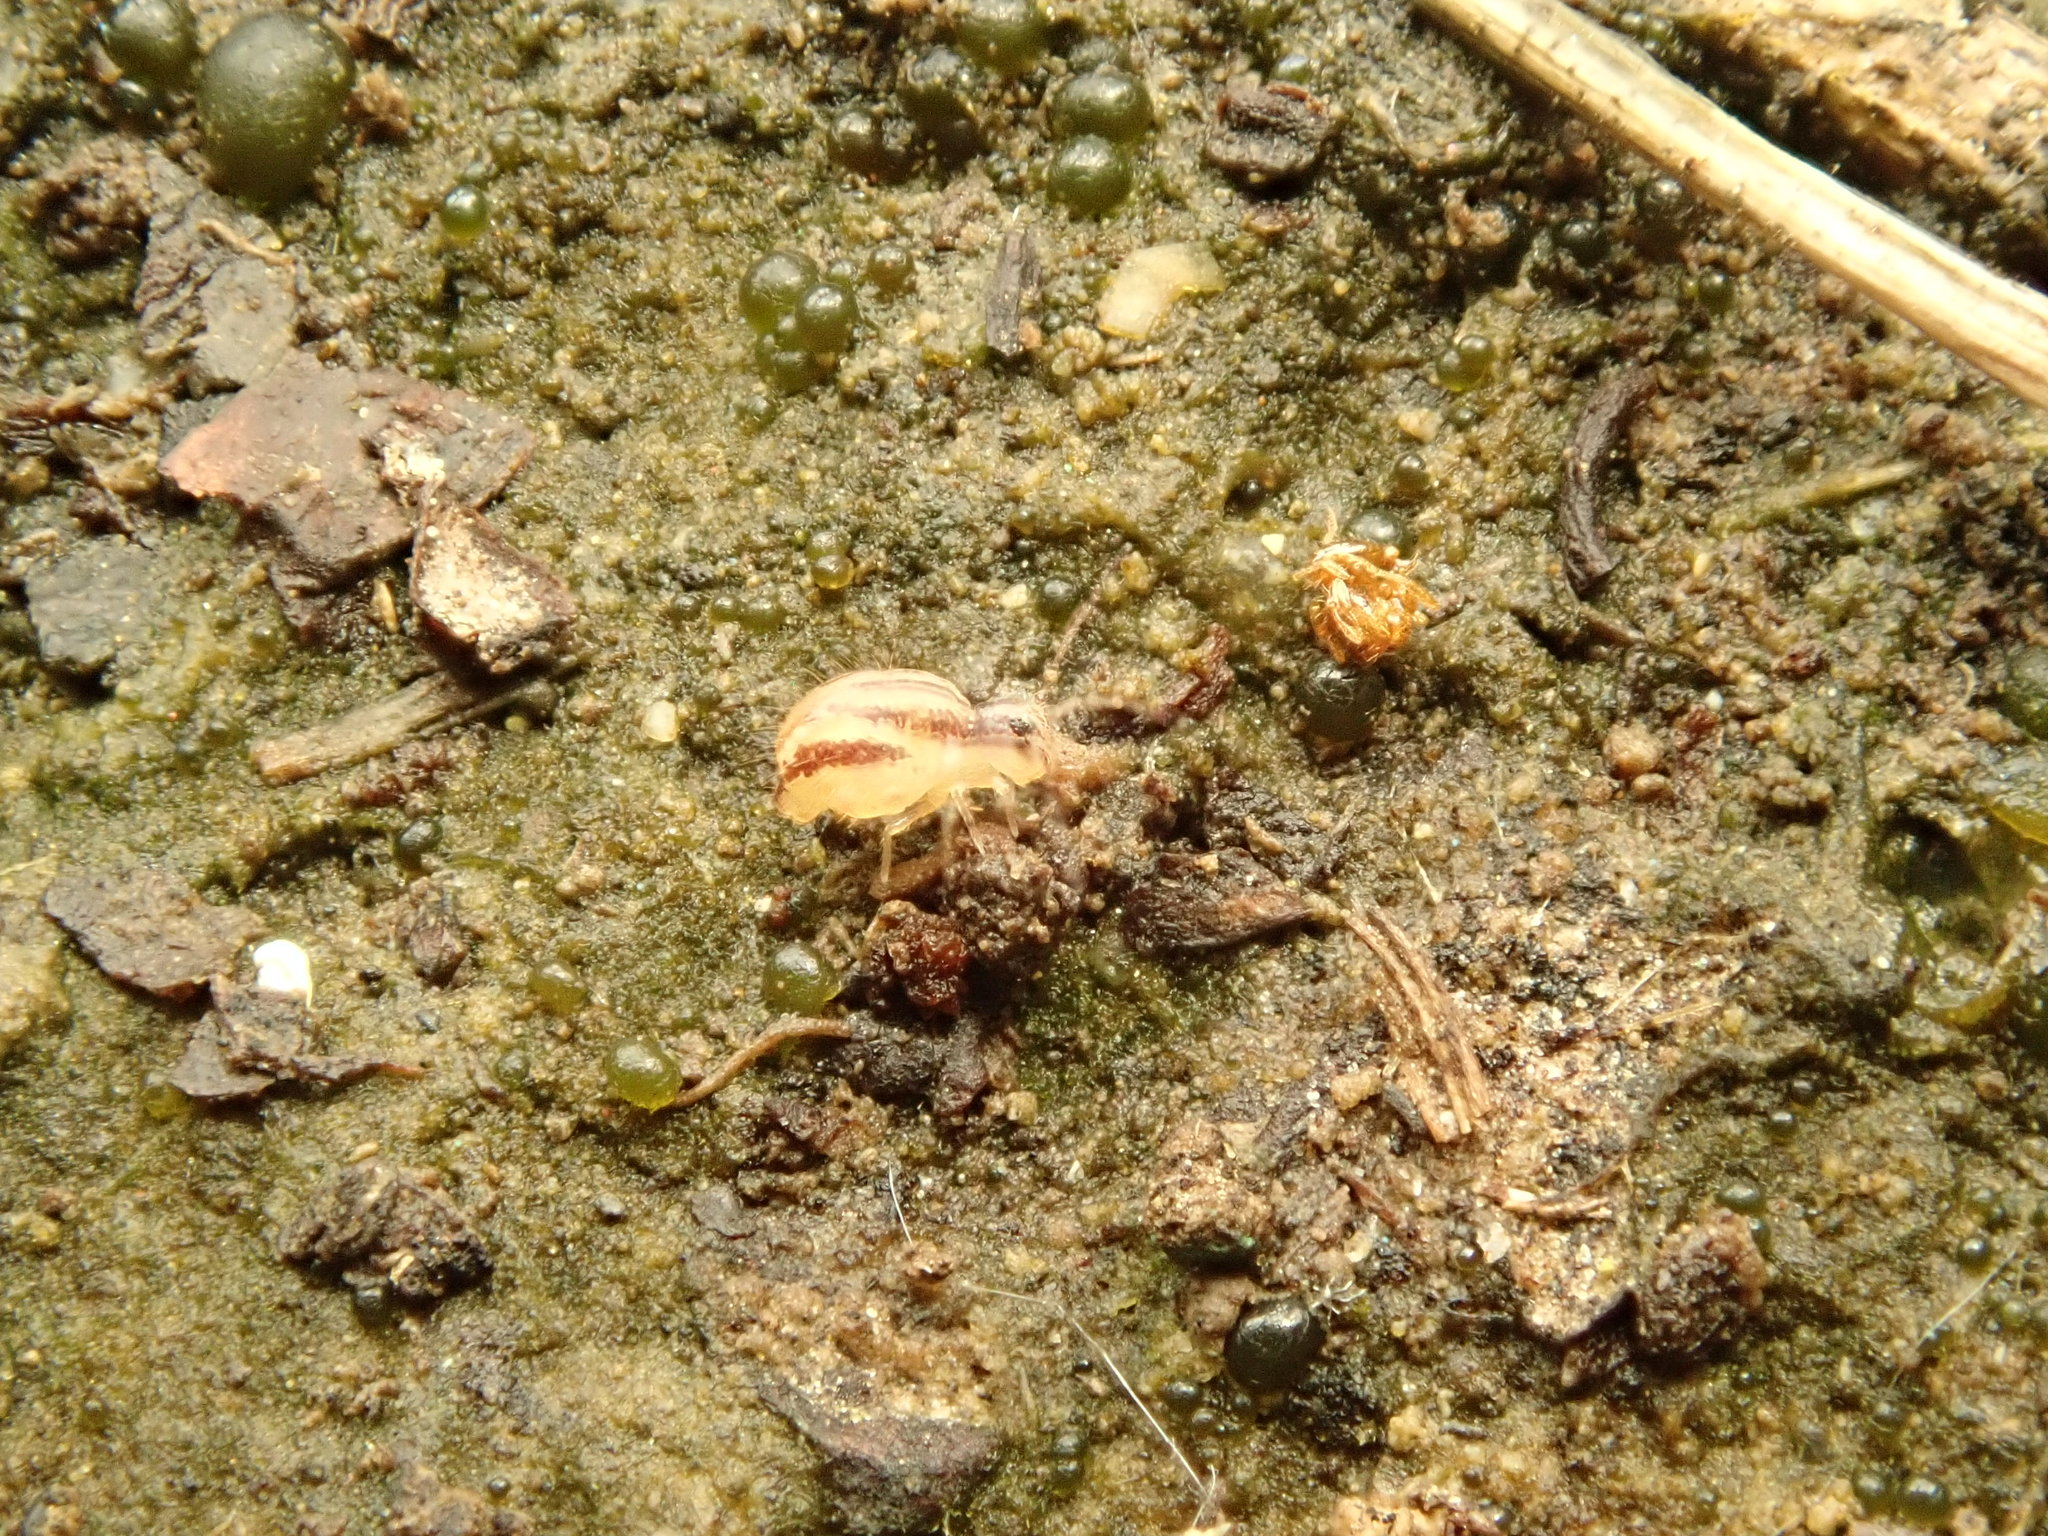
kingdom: Animalia
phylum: Arthropoda
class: Collembola
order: Symphypleona
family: Sminthuridae
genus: Sminthurus
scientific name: Sminthurus mencenbergae
